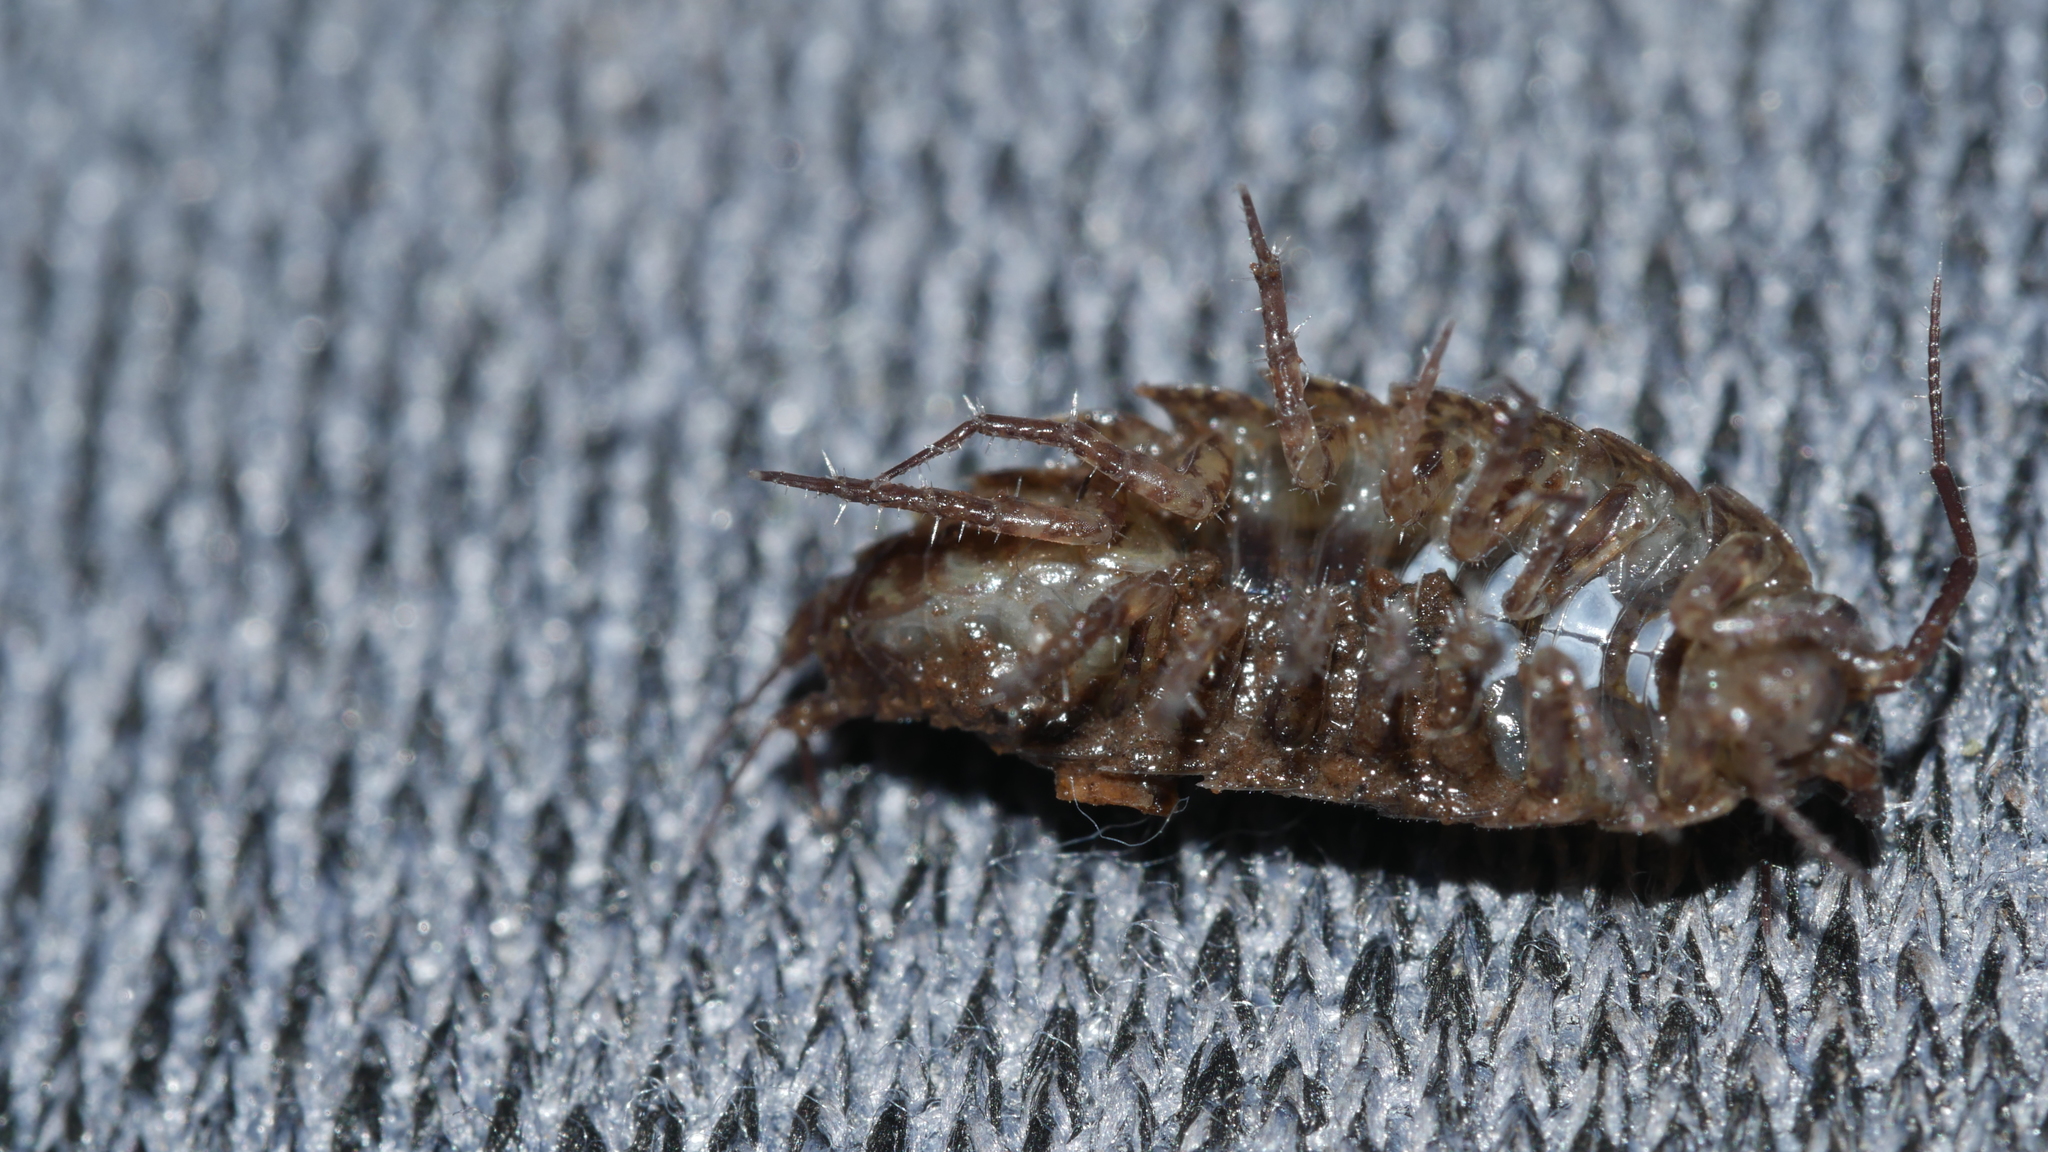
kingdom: Animalia
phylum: Arthropoda
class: Malacostraca
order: Isopoda
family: Ligiidae
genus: Ligidium
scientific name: Ligidium elrodii
